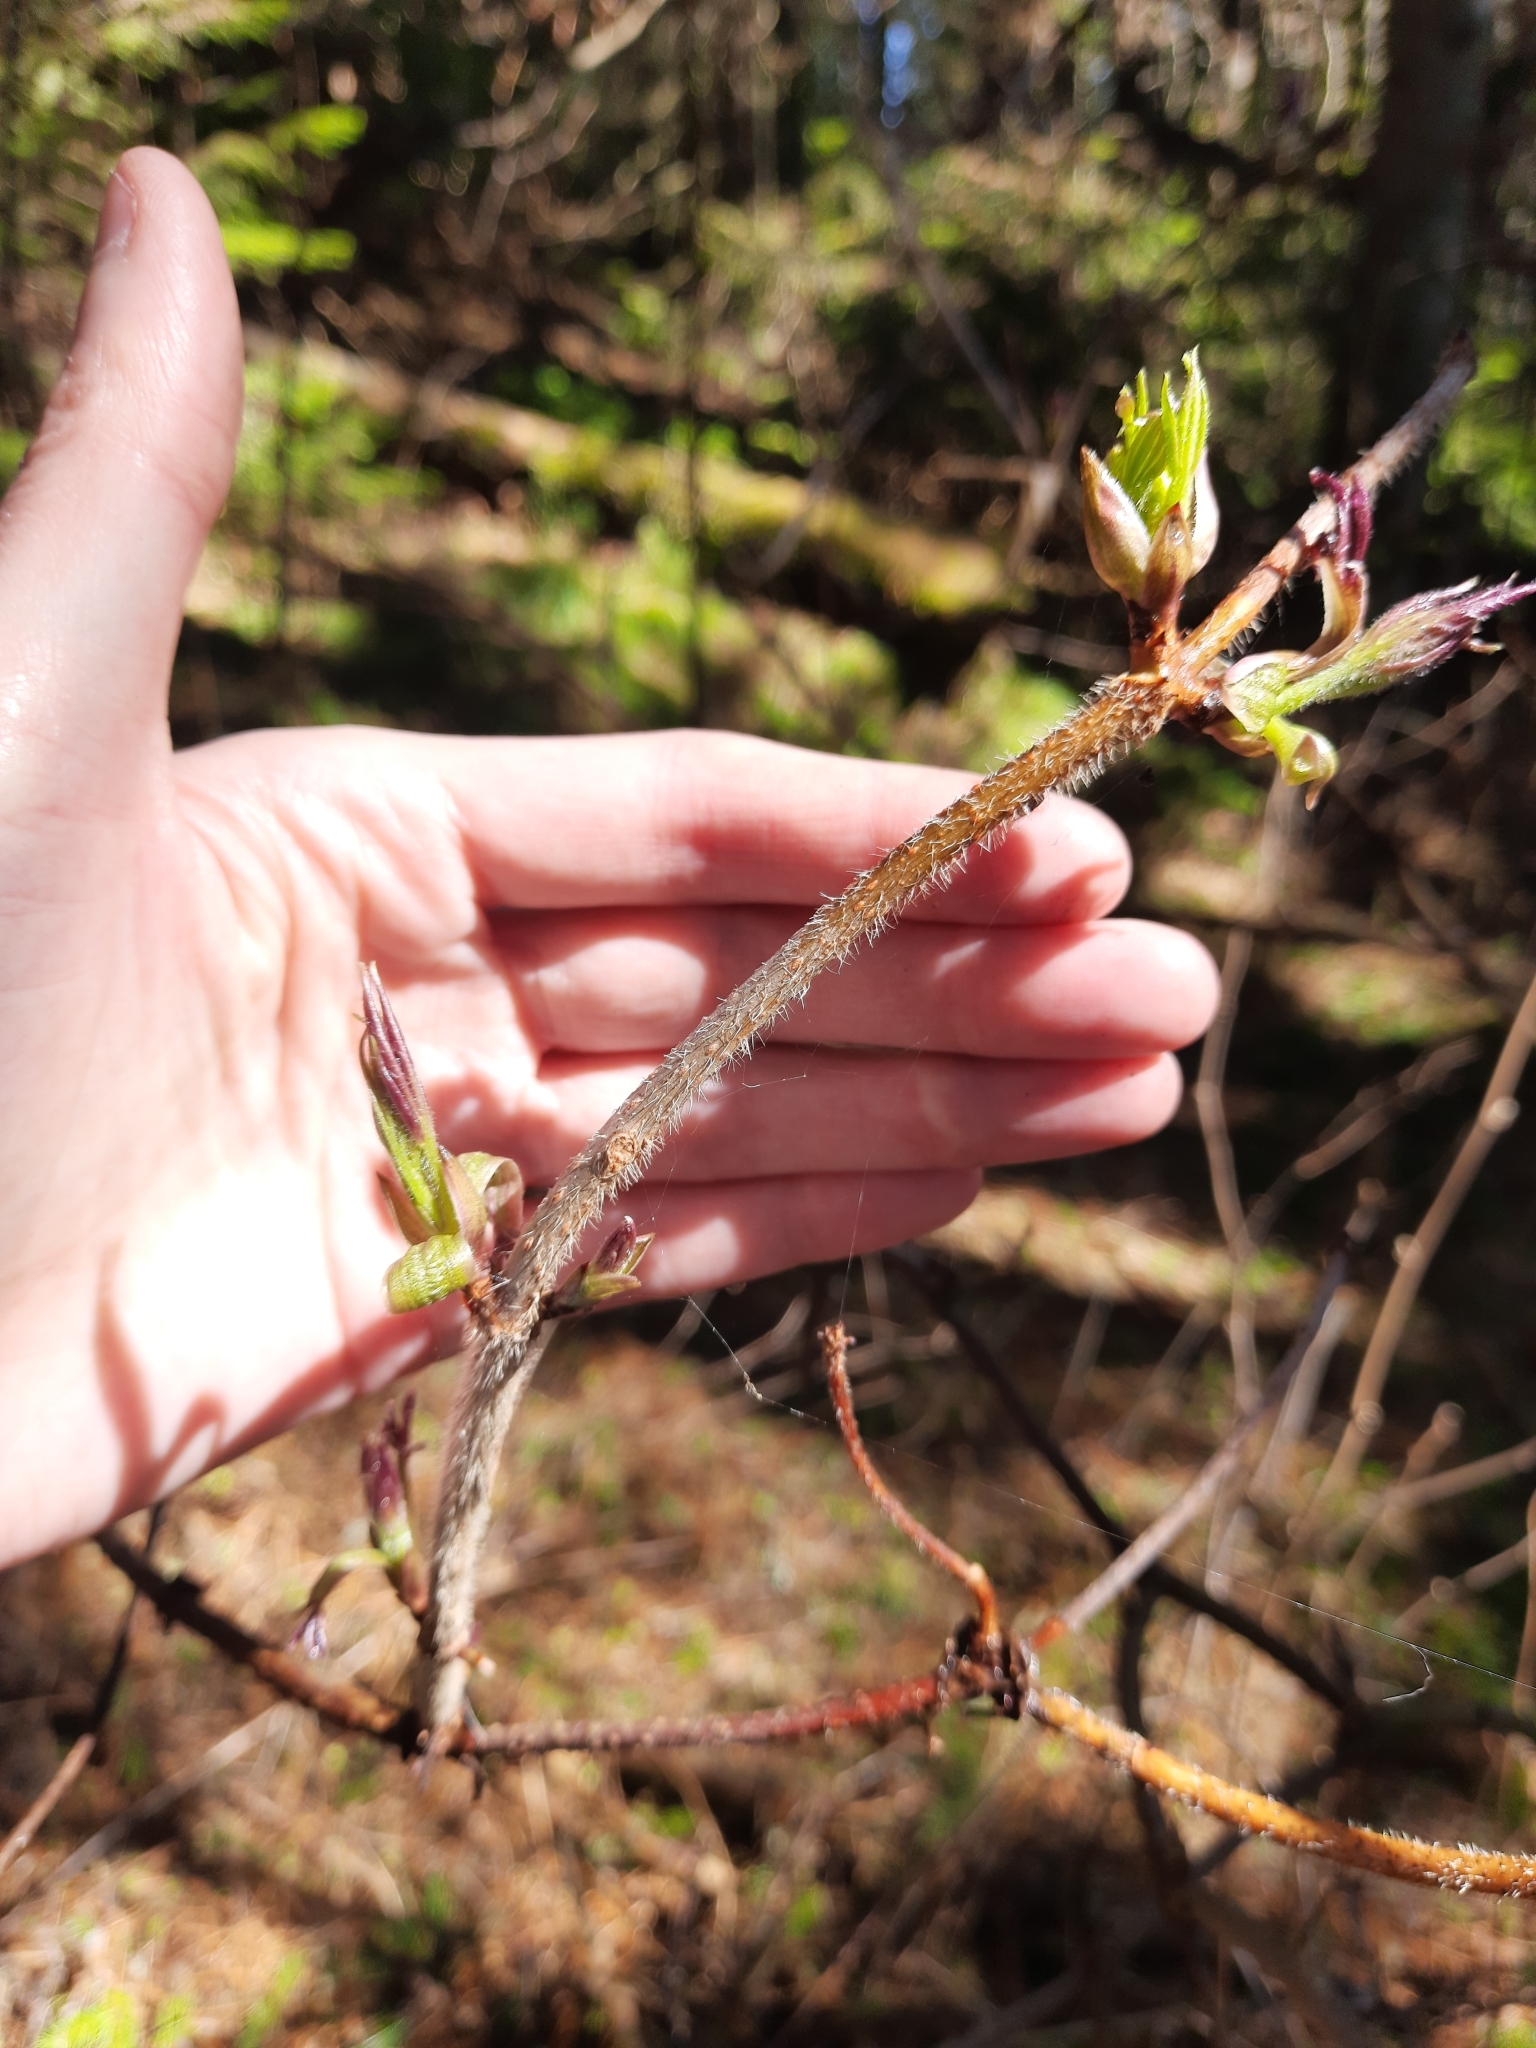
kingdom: Plantae
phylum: Tracheophyta
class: Magnoliopsida
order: Dipsacales
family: Viburnaceae
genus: Sambucus
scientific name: Sambucus sibirica
